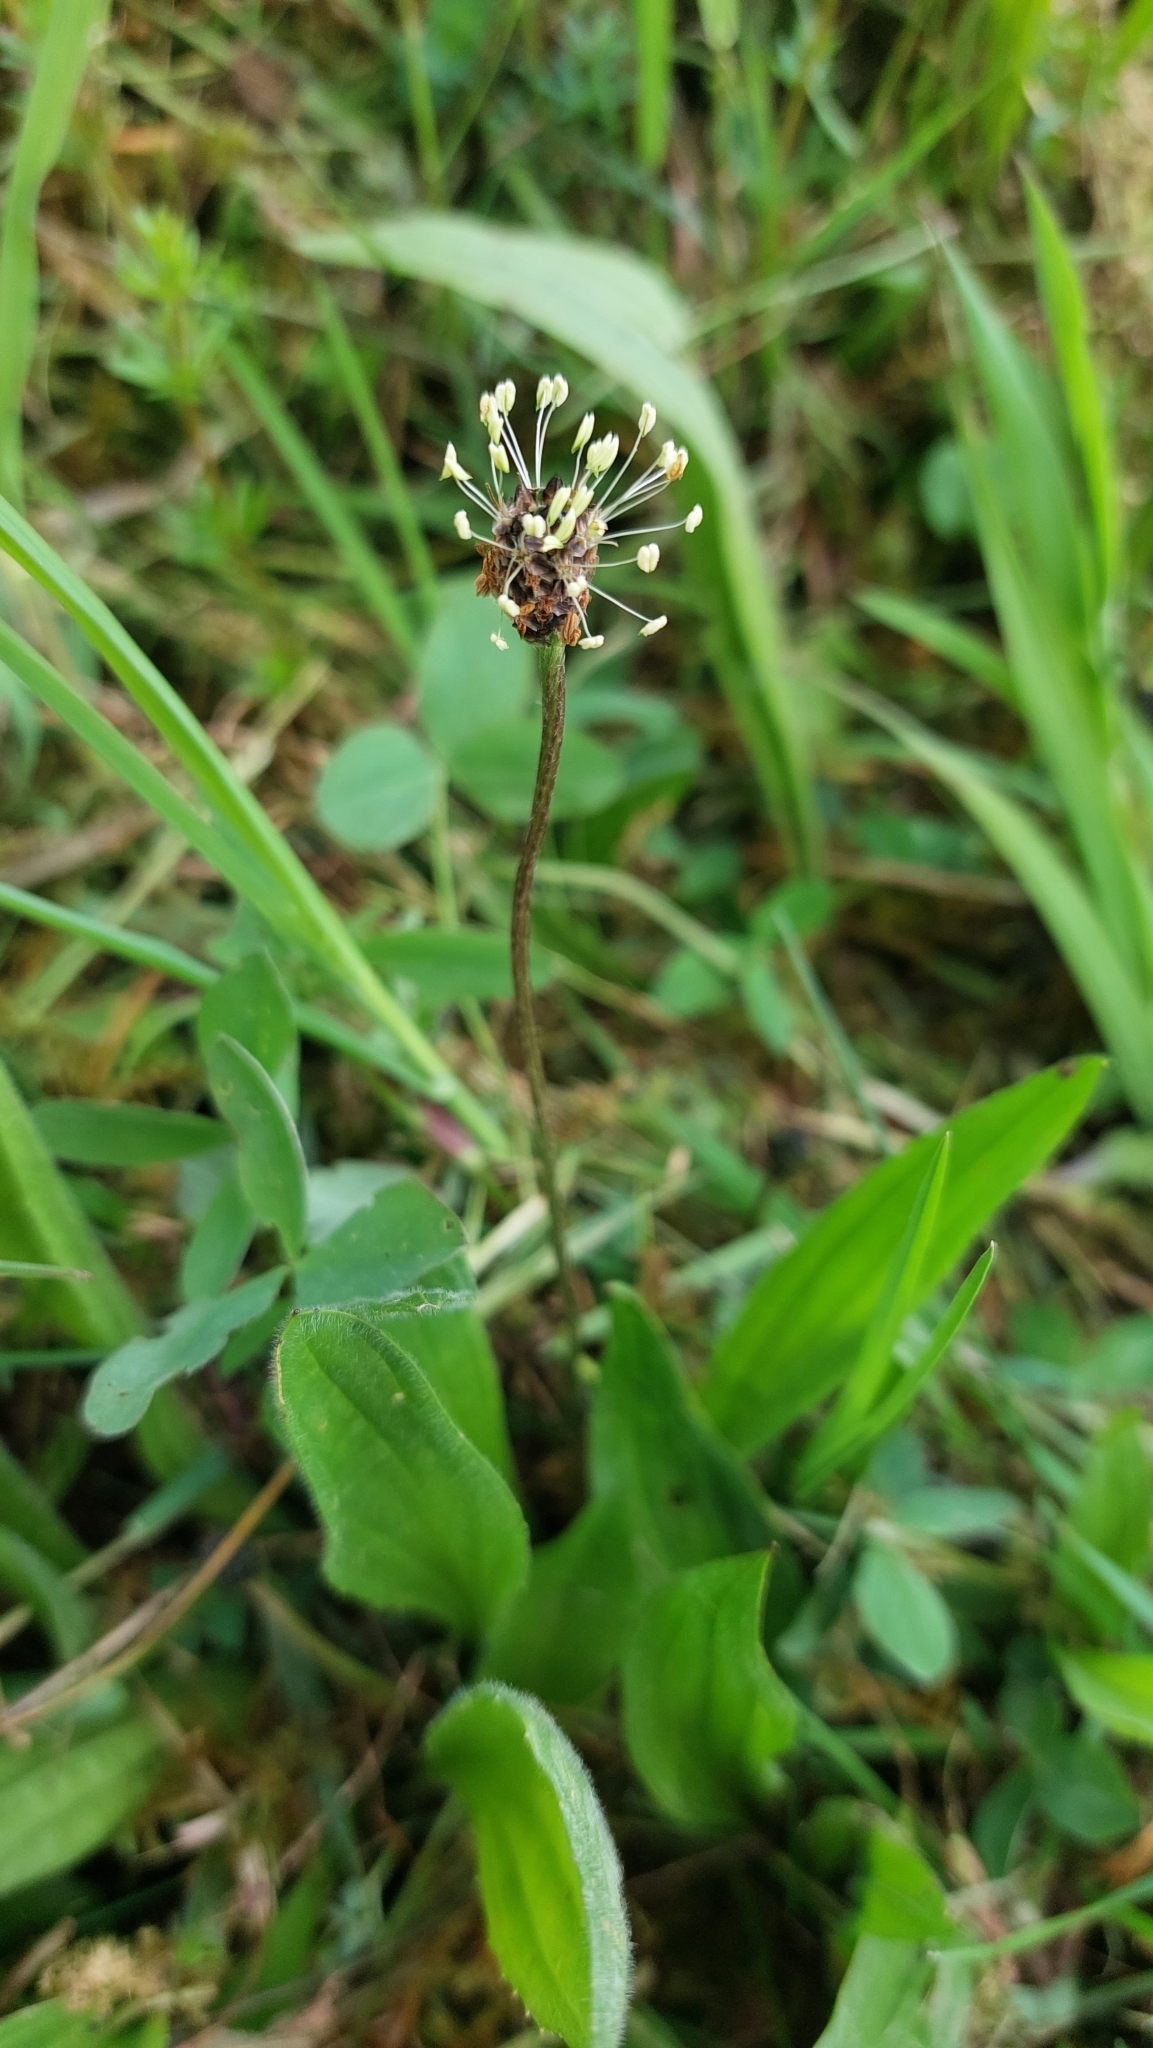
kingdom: Plantae
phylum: Tracheophyta
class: Magnoliopsida
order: Lamiales
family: Plantaginaceae
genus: Plantago
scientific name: Plantago lanceolata
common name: Ribwort plantain
